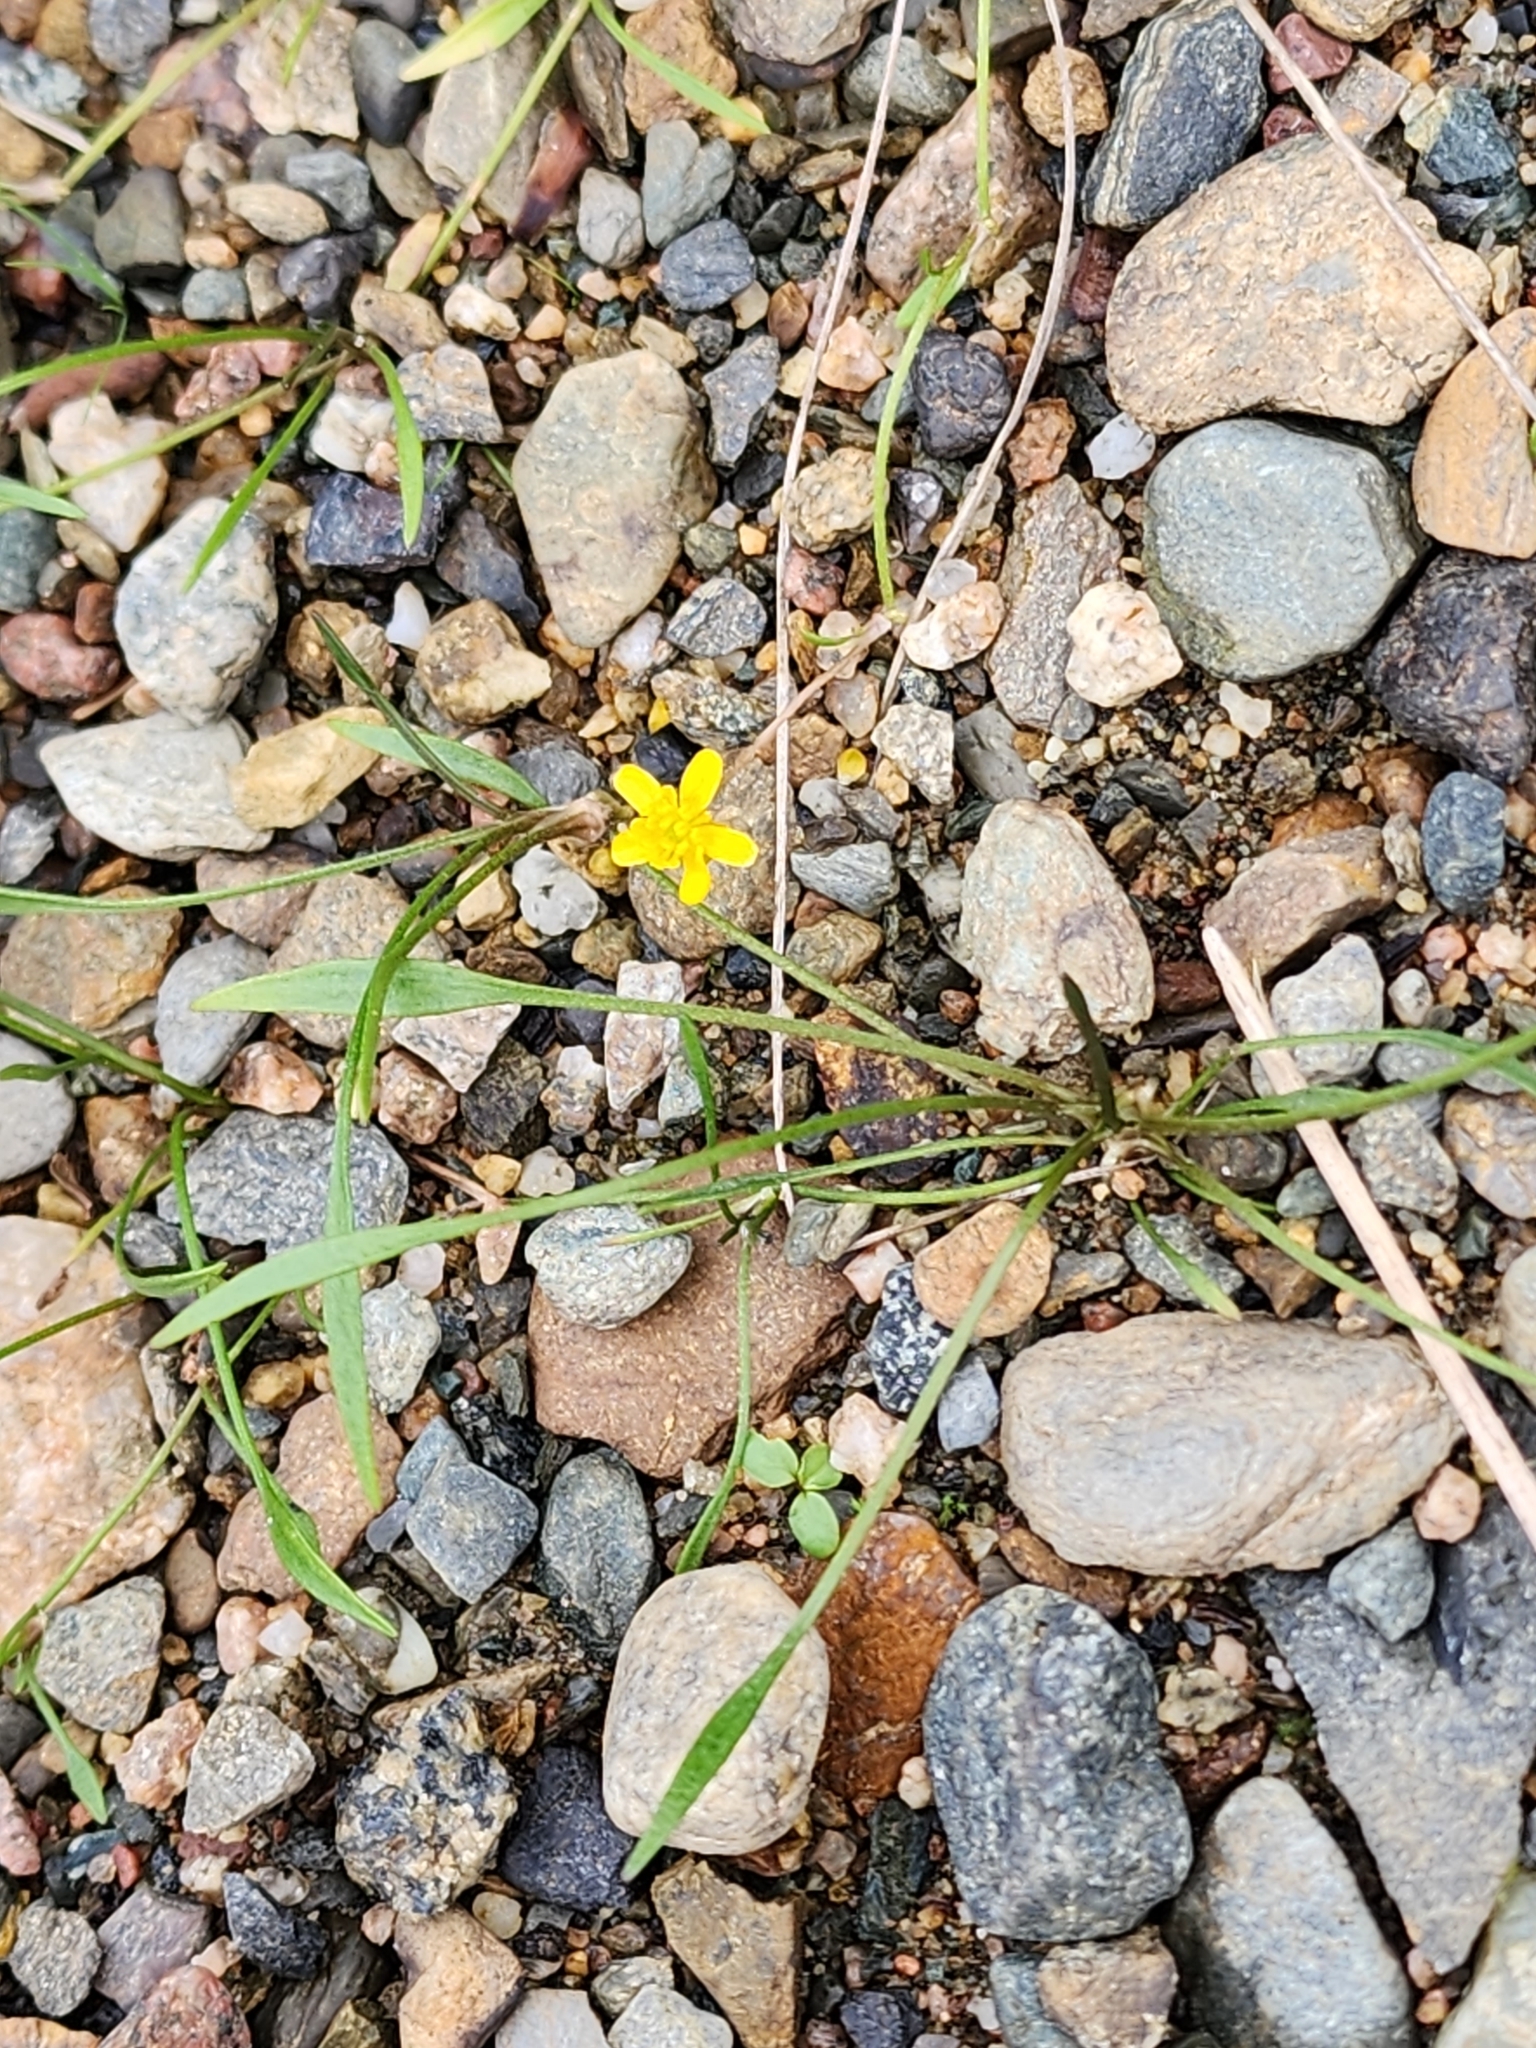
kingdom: Plantae
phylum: Tracheophyta
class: Magnoliopsida
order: Ranunculales
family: Ranunculaceae
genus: Ranunculus
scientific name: Ranunculus flammula
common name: Lesser spearwort
